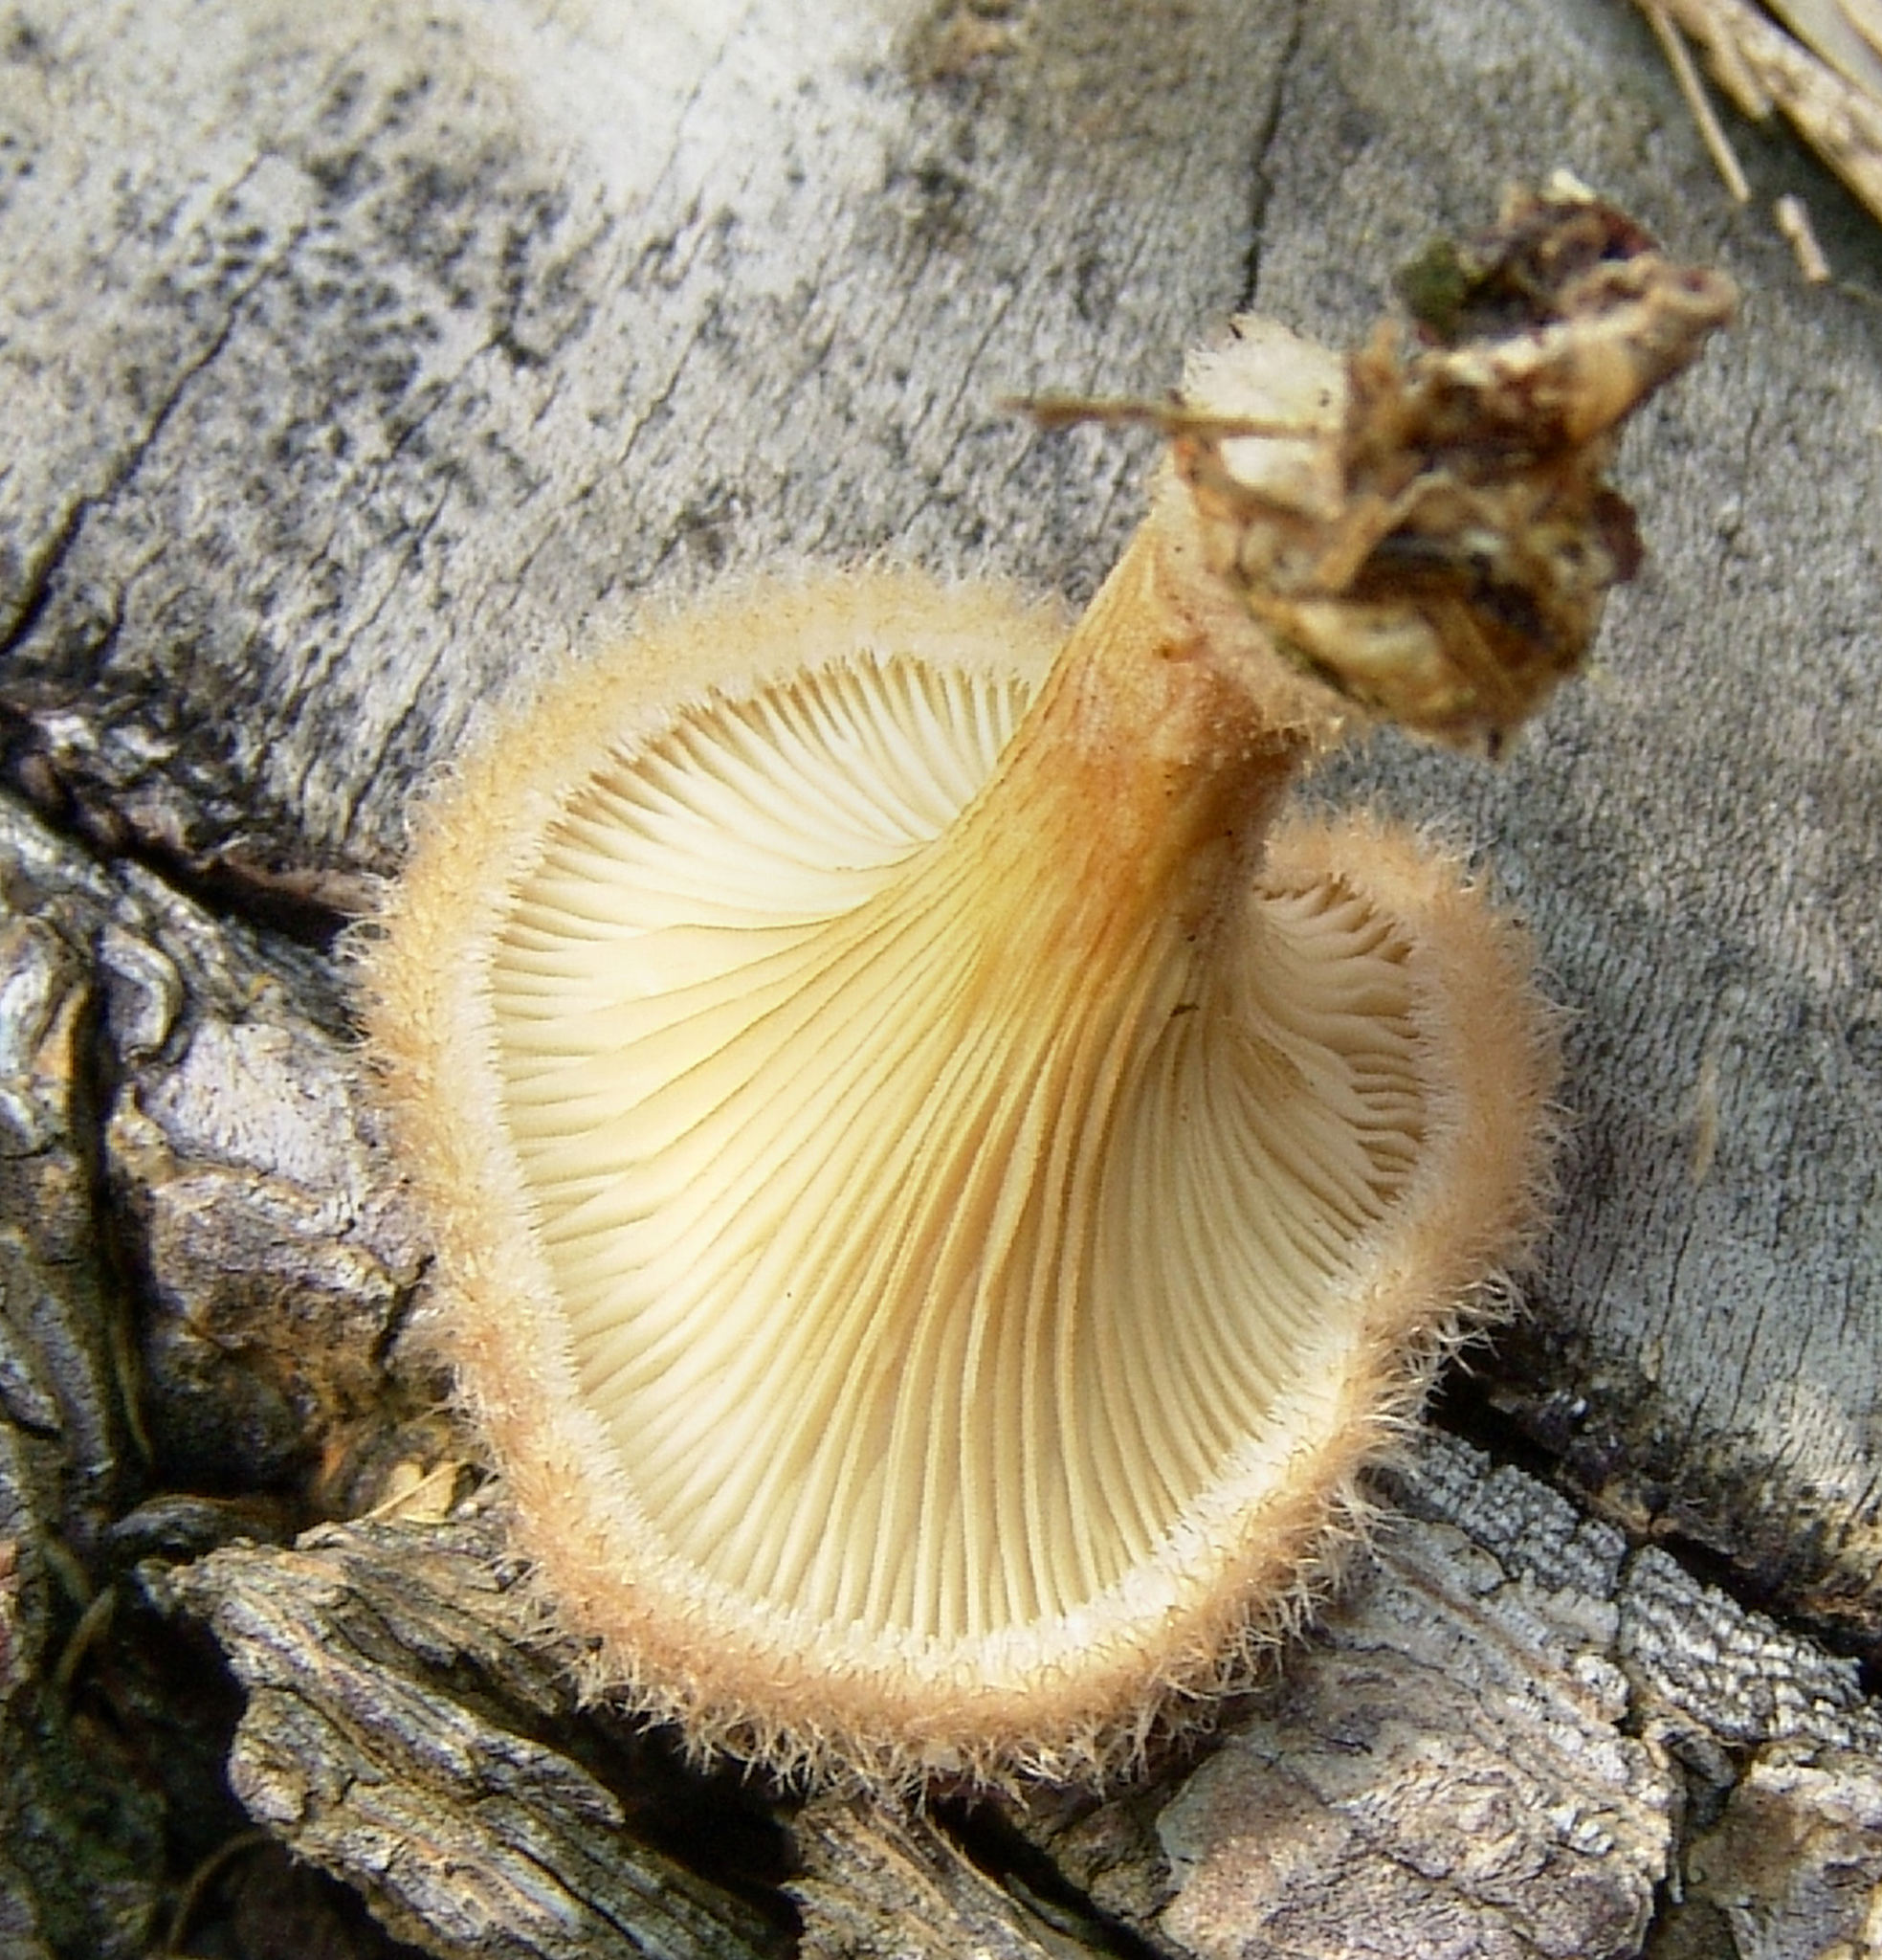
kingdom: Fungi
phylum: Basidiomycota
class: Agaricomycetes
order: Polyporales
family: Panaceae
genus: Panus
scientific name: Panus neostrigosus
